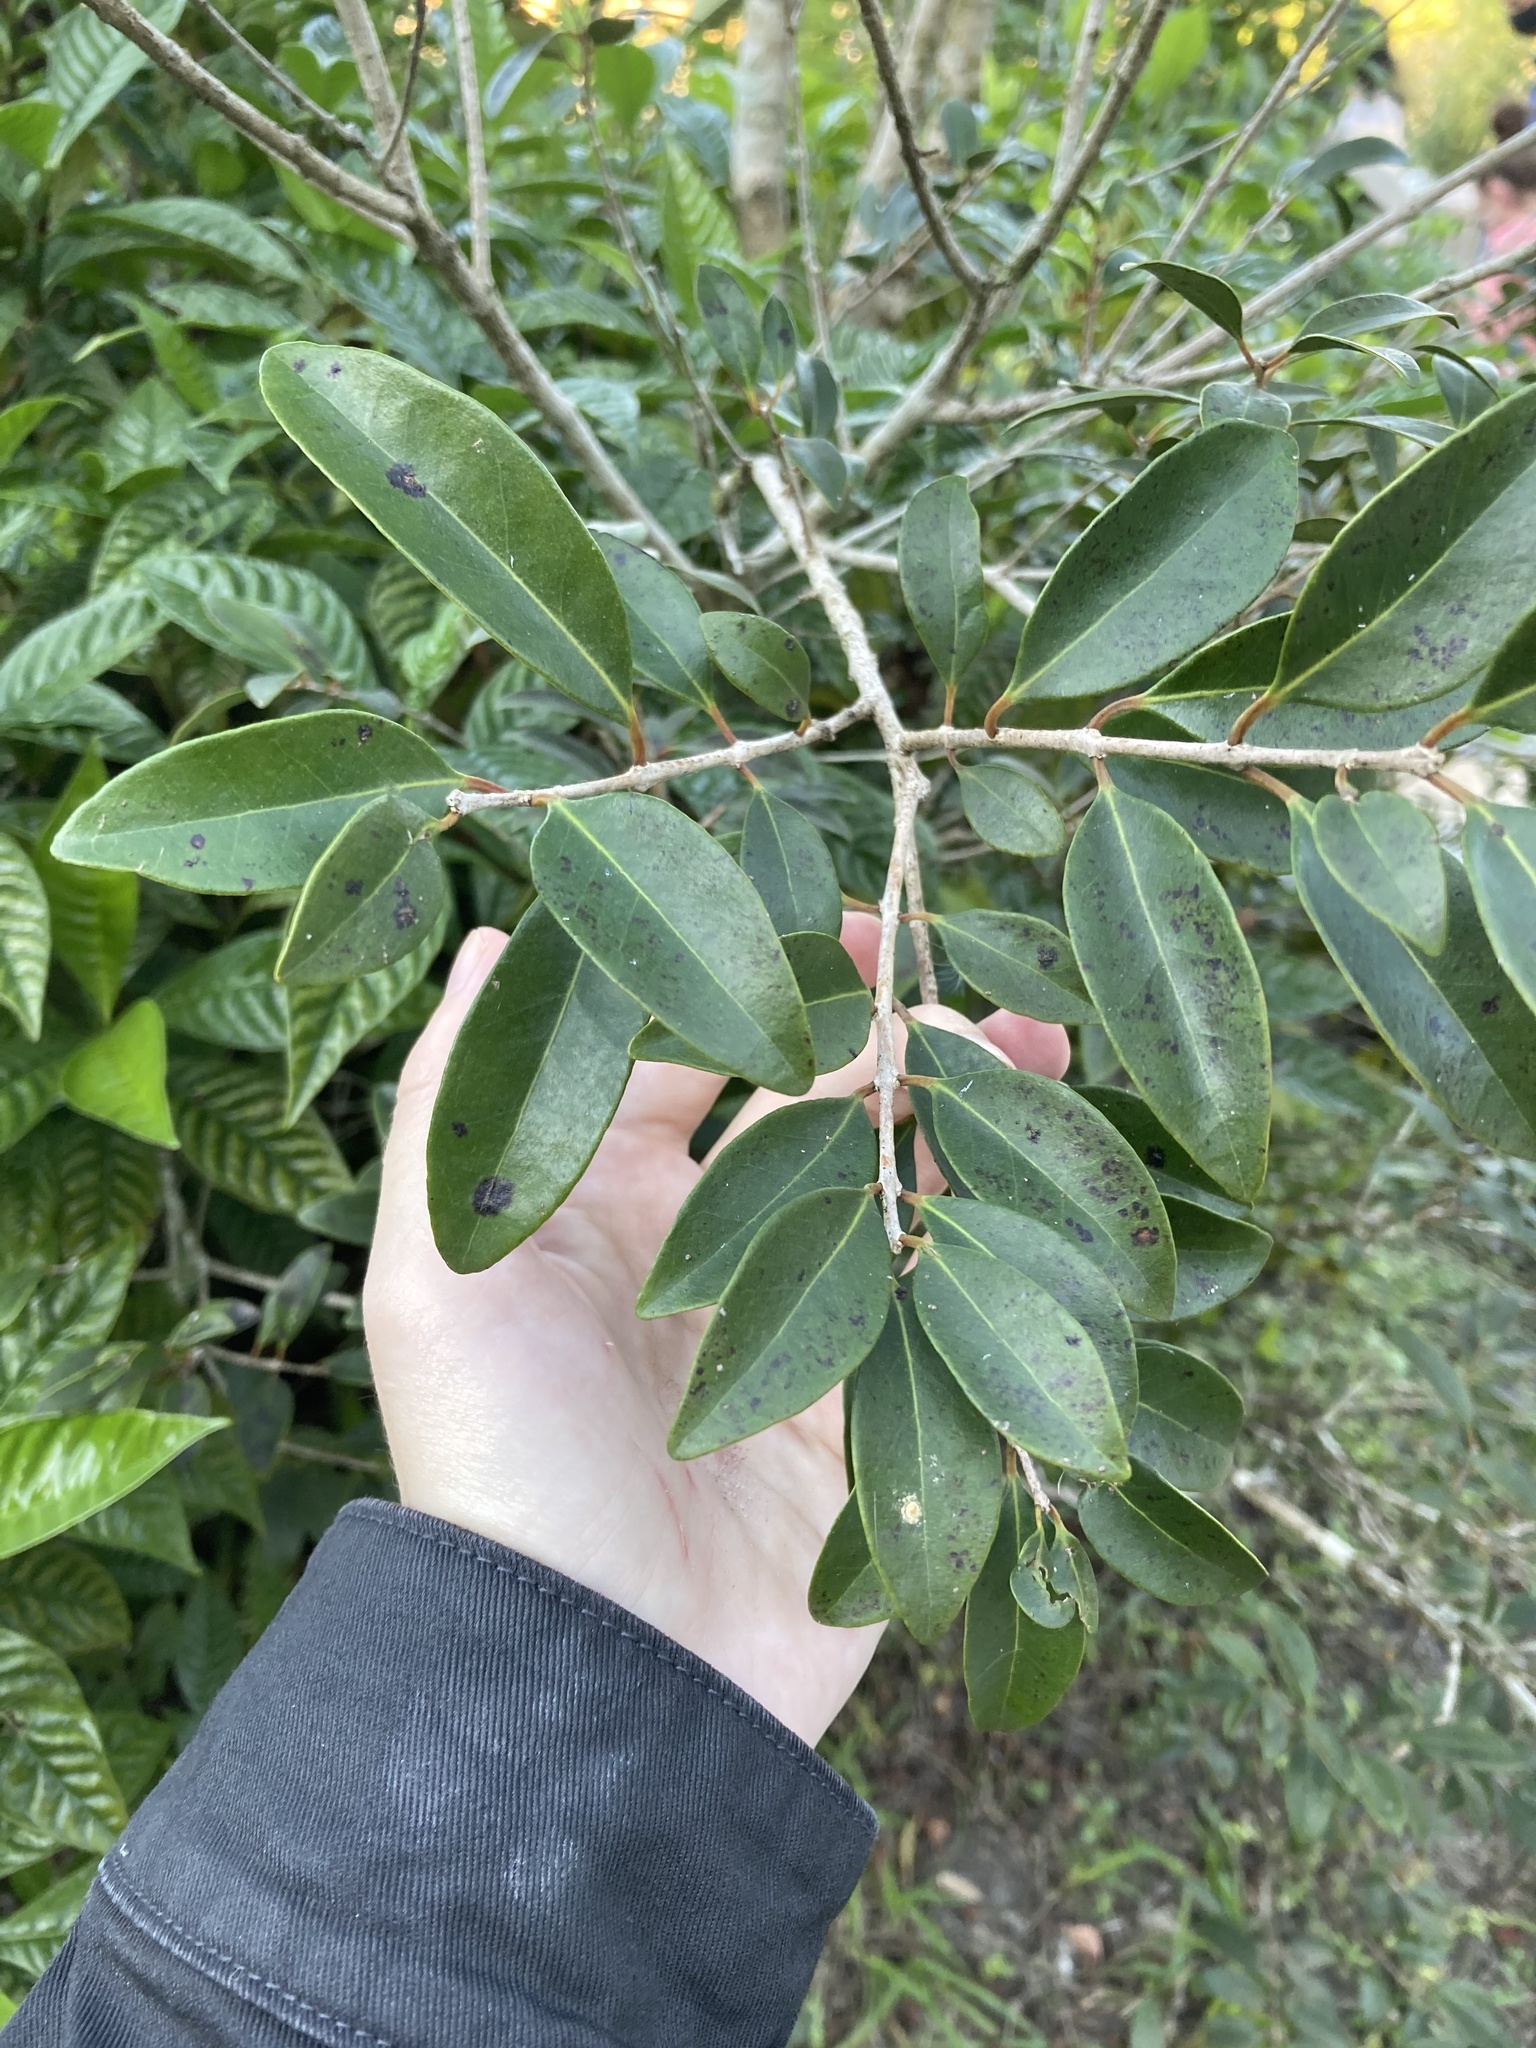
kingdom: Plantae
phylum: Tracheophyta
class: Magnoliopsida
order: Myrtales
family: Myrtaceae
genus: Eugenia
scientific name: Eugenia axillaris
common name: Choaky berry
